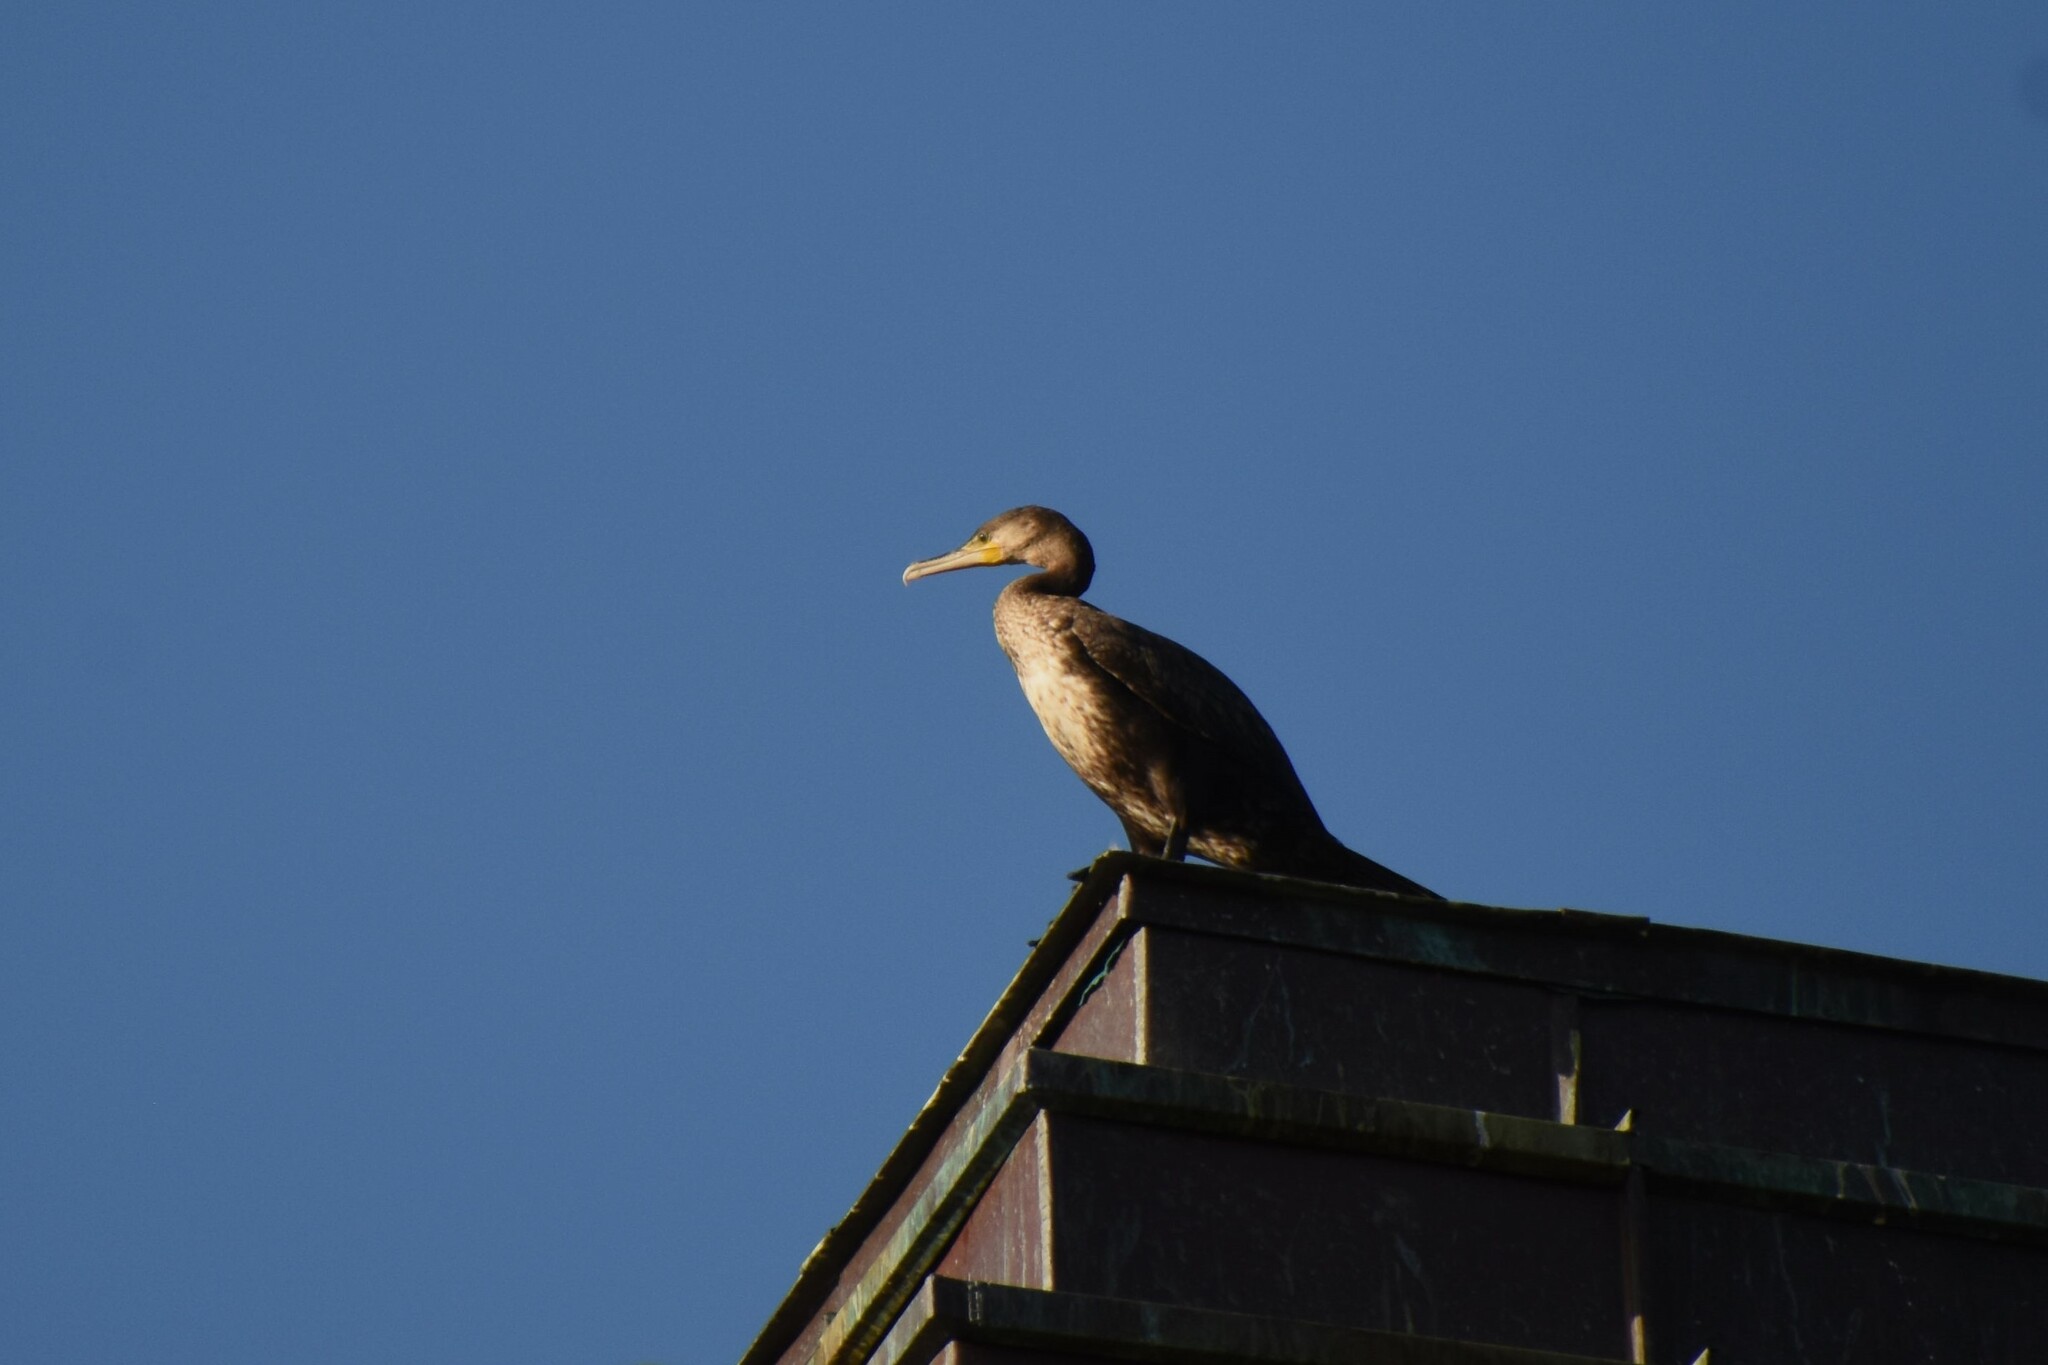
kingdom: Animalia
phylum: Chordata
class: Aves
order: Suliformes
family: Phalacrocoracidae
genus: Phalacrocorax
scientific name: Phalacrocorax carbo
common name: Great cormorant
